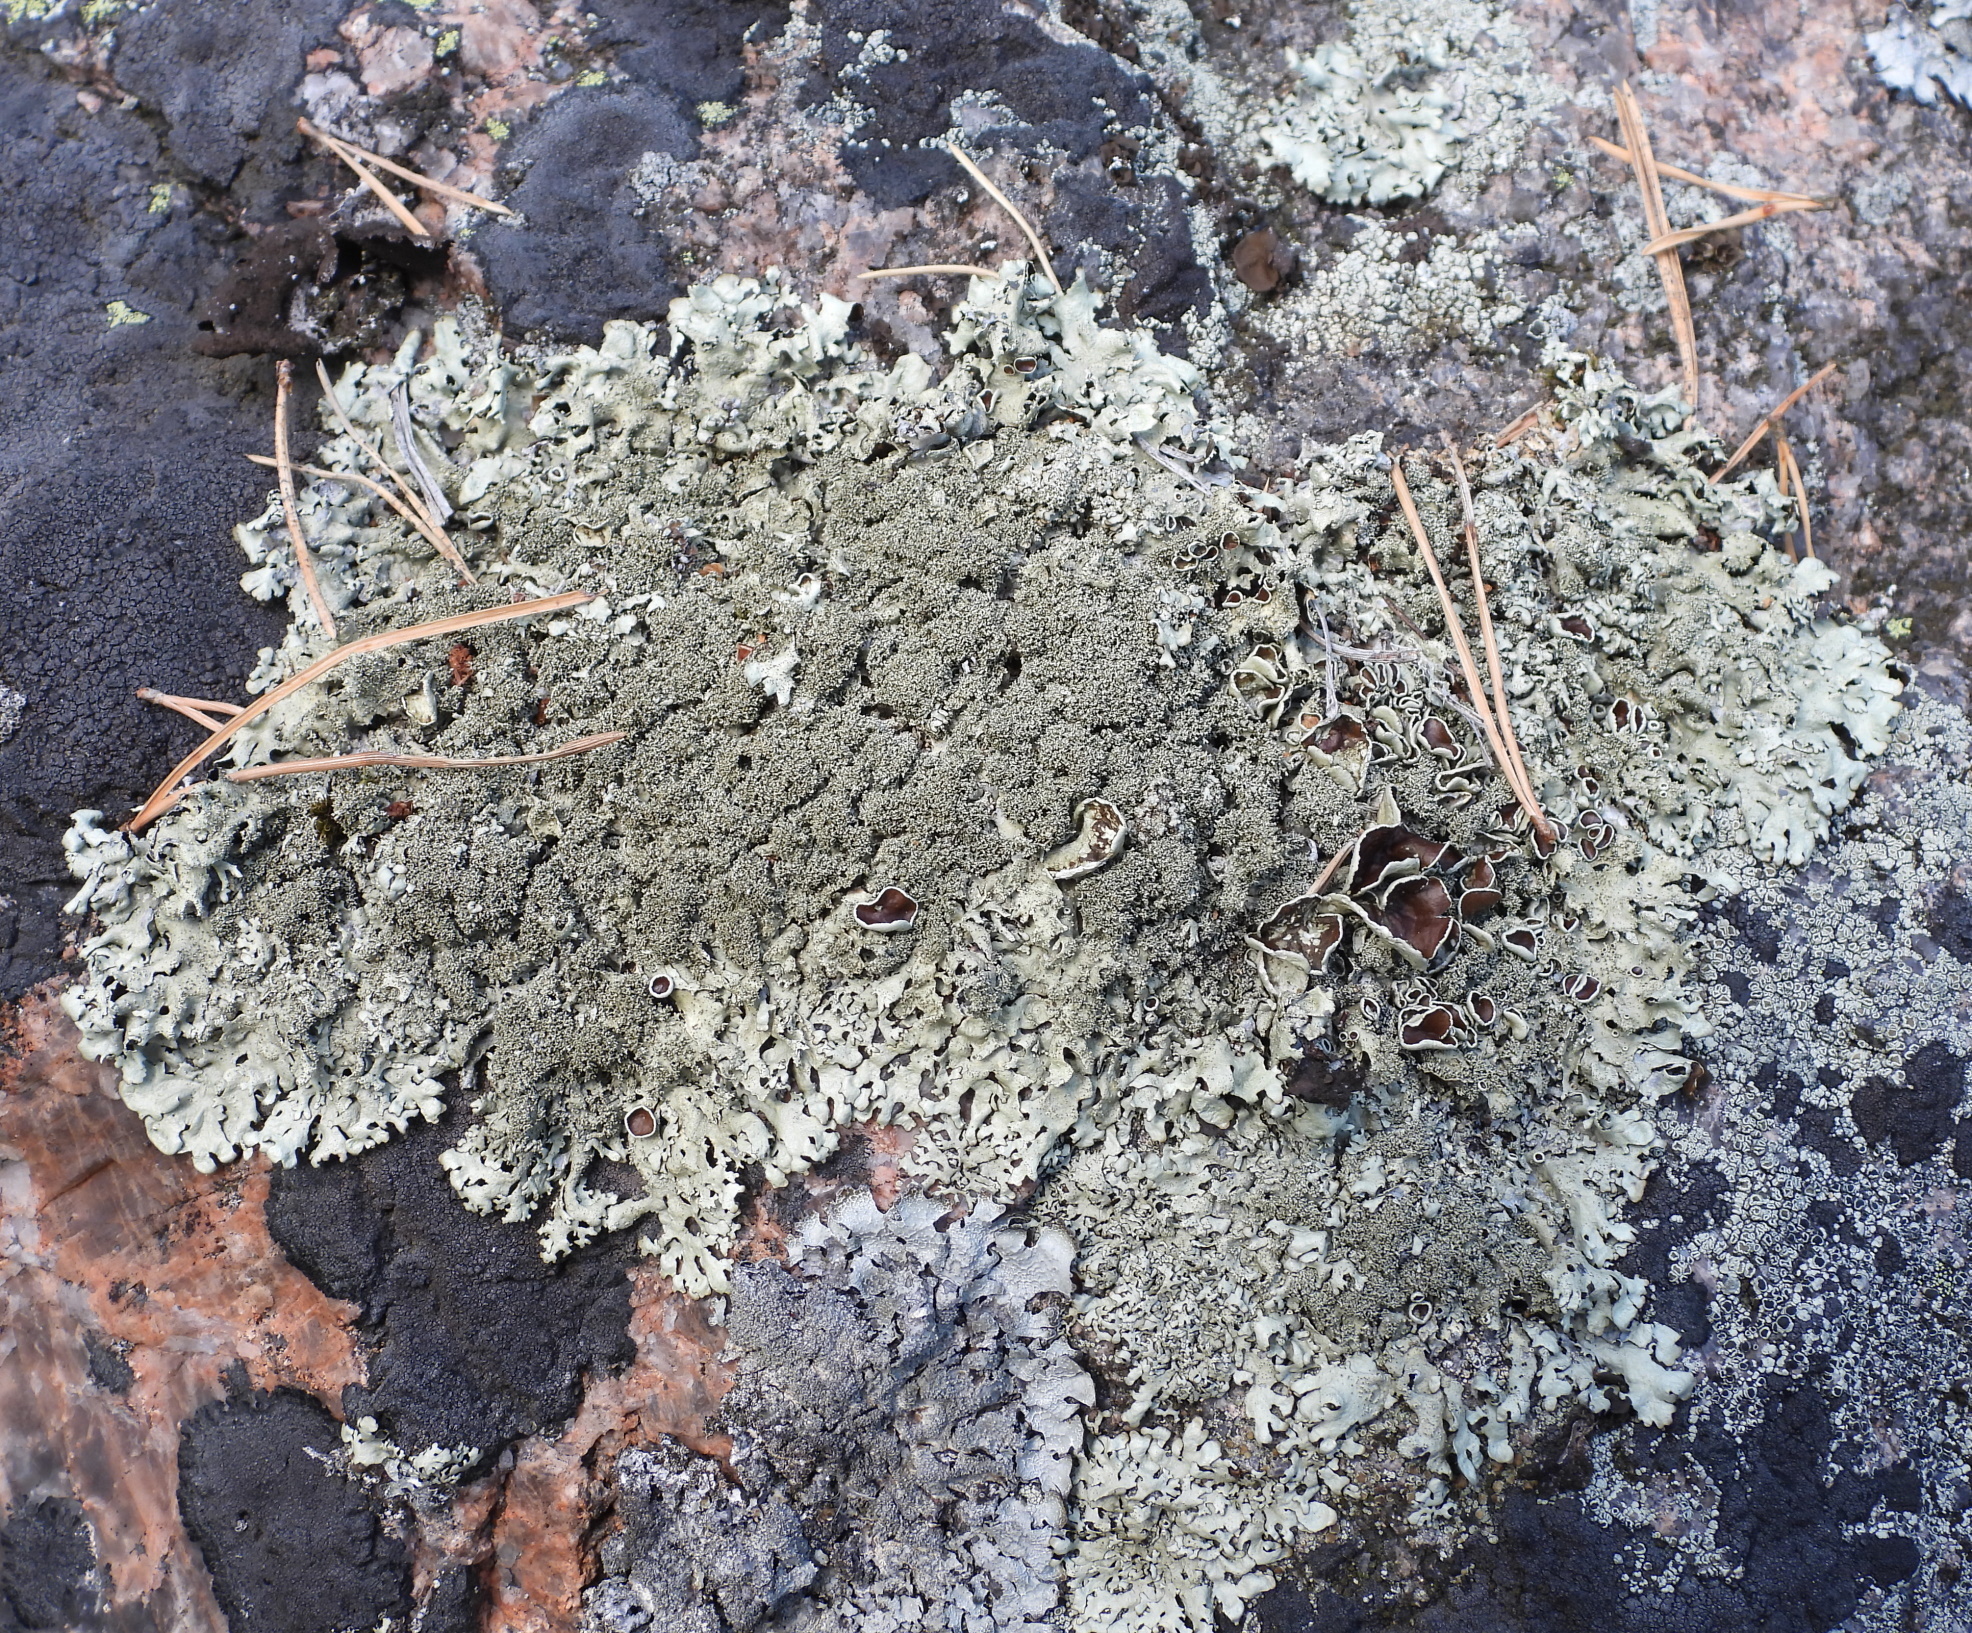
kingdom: Fungi
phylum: Ascomycota
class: Lecanoromycetes
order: Lecanorales
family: Parmeliaceae
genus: Xanthoparmelia
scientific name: Xanthoparmelia conspersa
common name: Peppered rock shield
